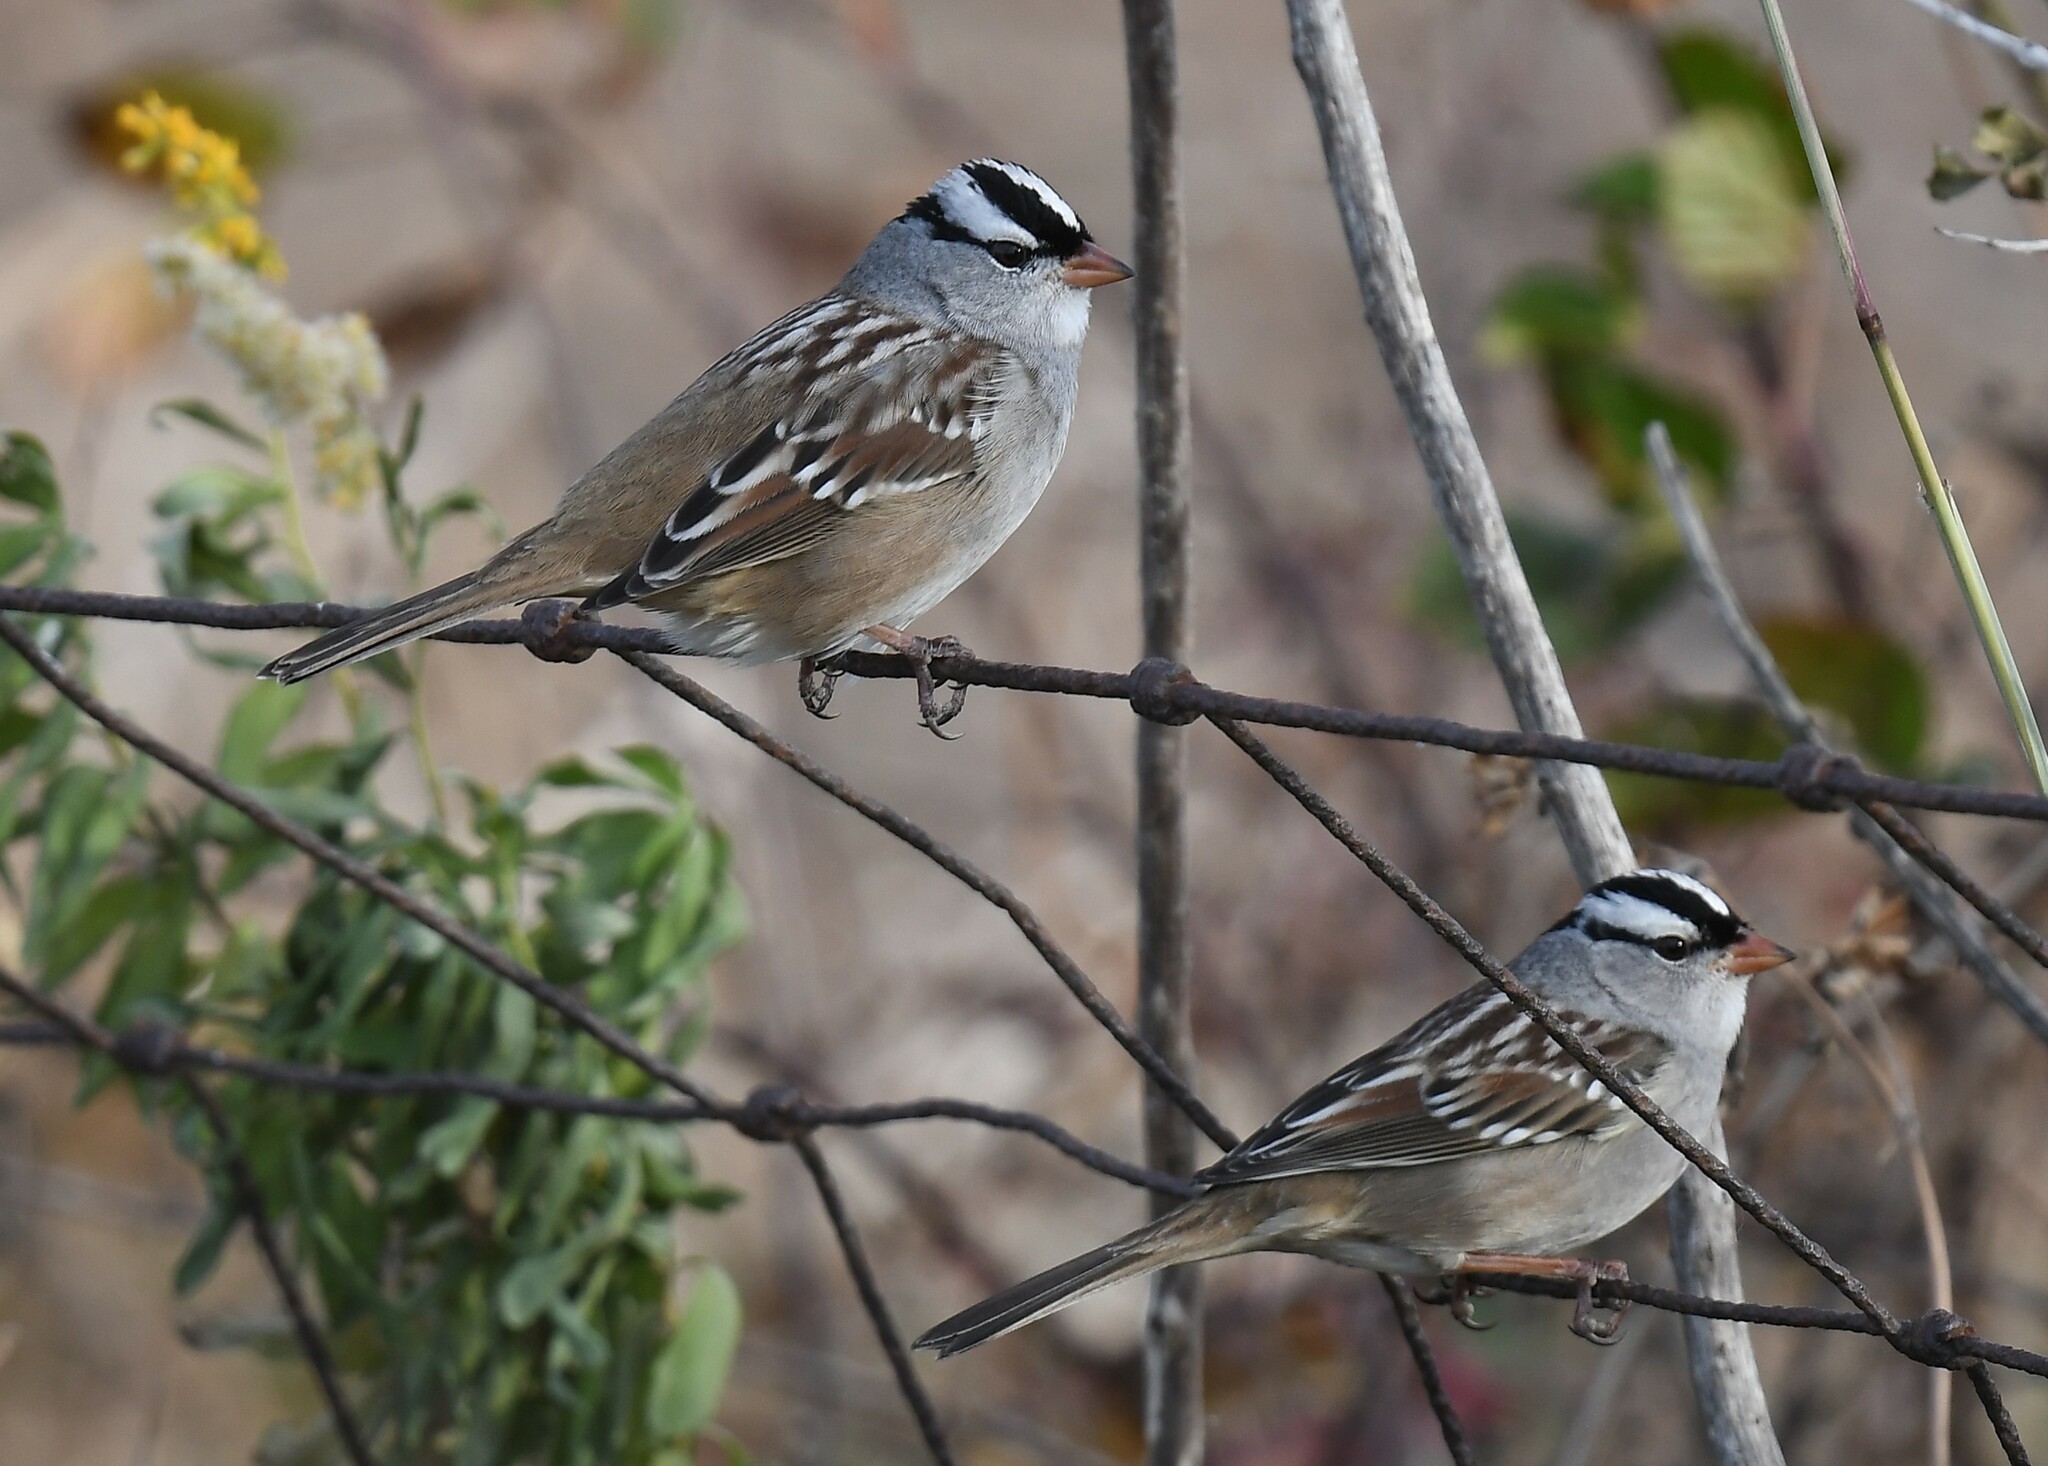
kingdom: Animalia
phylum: Chordata
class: Aves
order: Passeriformes
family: Passerellidae
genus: Zonotrichia
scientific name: Zonotrichia leucophrys
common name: White-crowned sparrow
